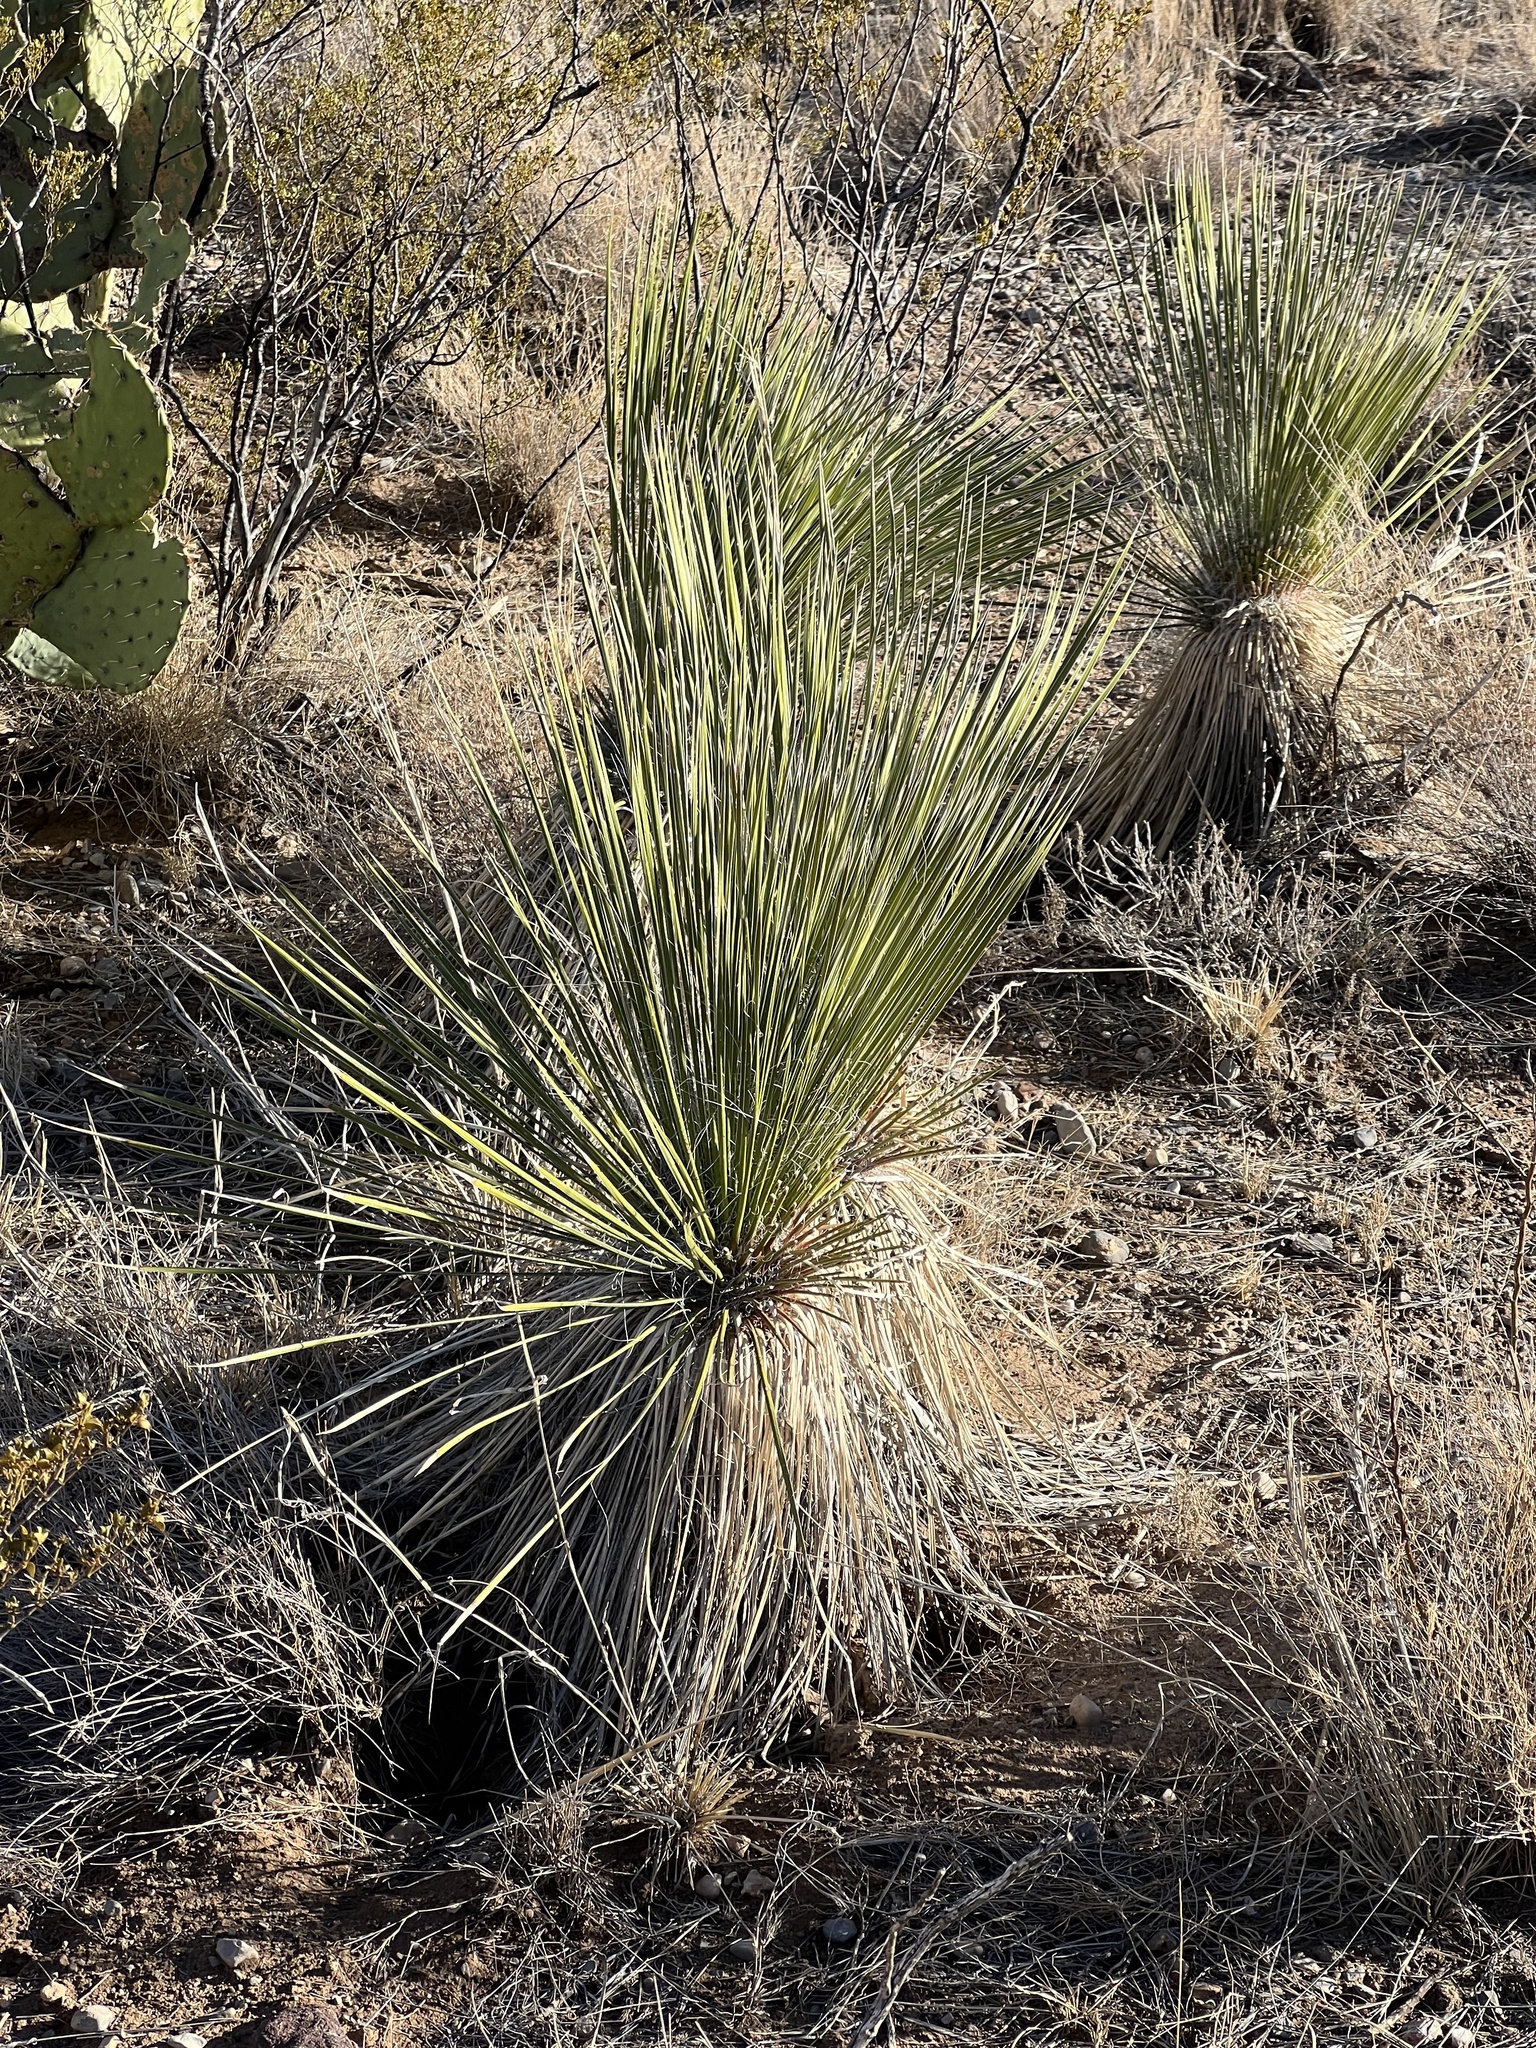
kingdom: Plantae
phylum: Tracheophyta
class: Liliopsida
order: Asparagales
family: Asparagaceae
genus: Yucca
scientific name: Yucca elata
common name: Palmella
